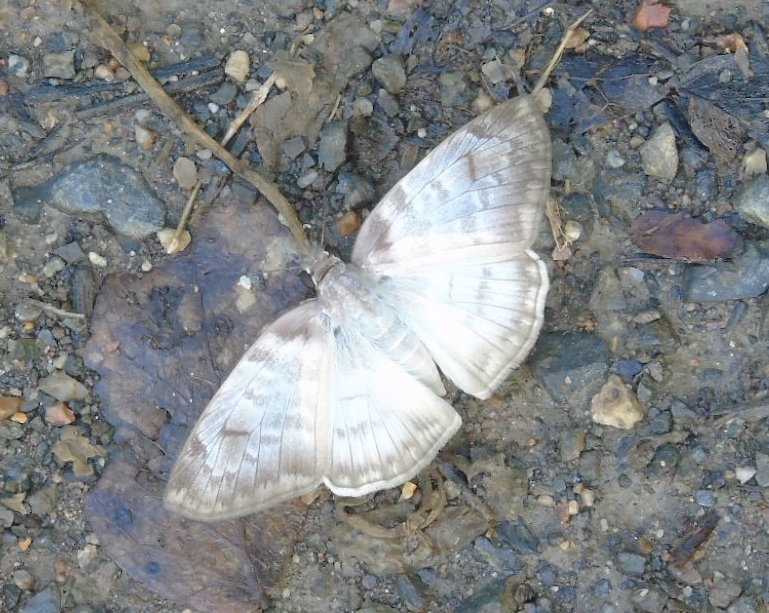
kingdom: Animalia
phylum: Arthropoda
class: Insecta
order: Lepidoptera
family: Hesperiidae
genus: Mylon
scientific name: Mylon pelopidas
